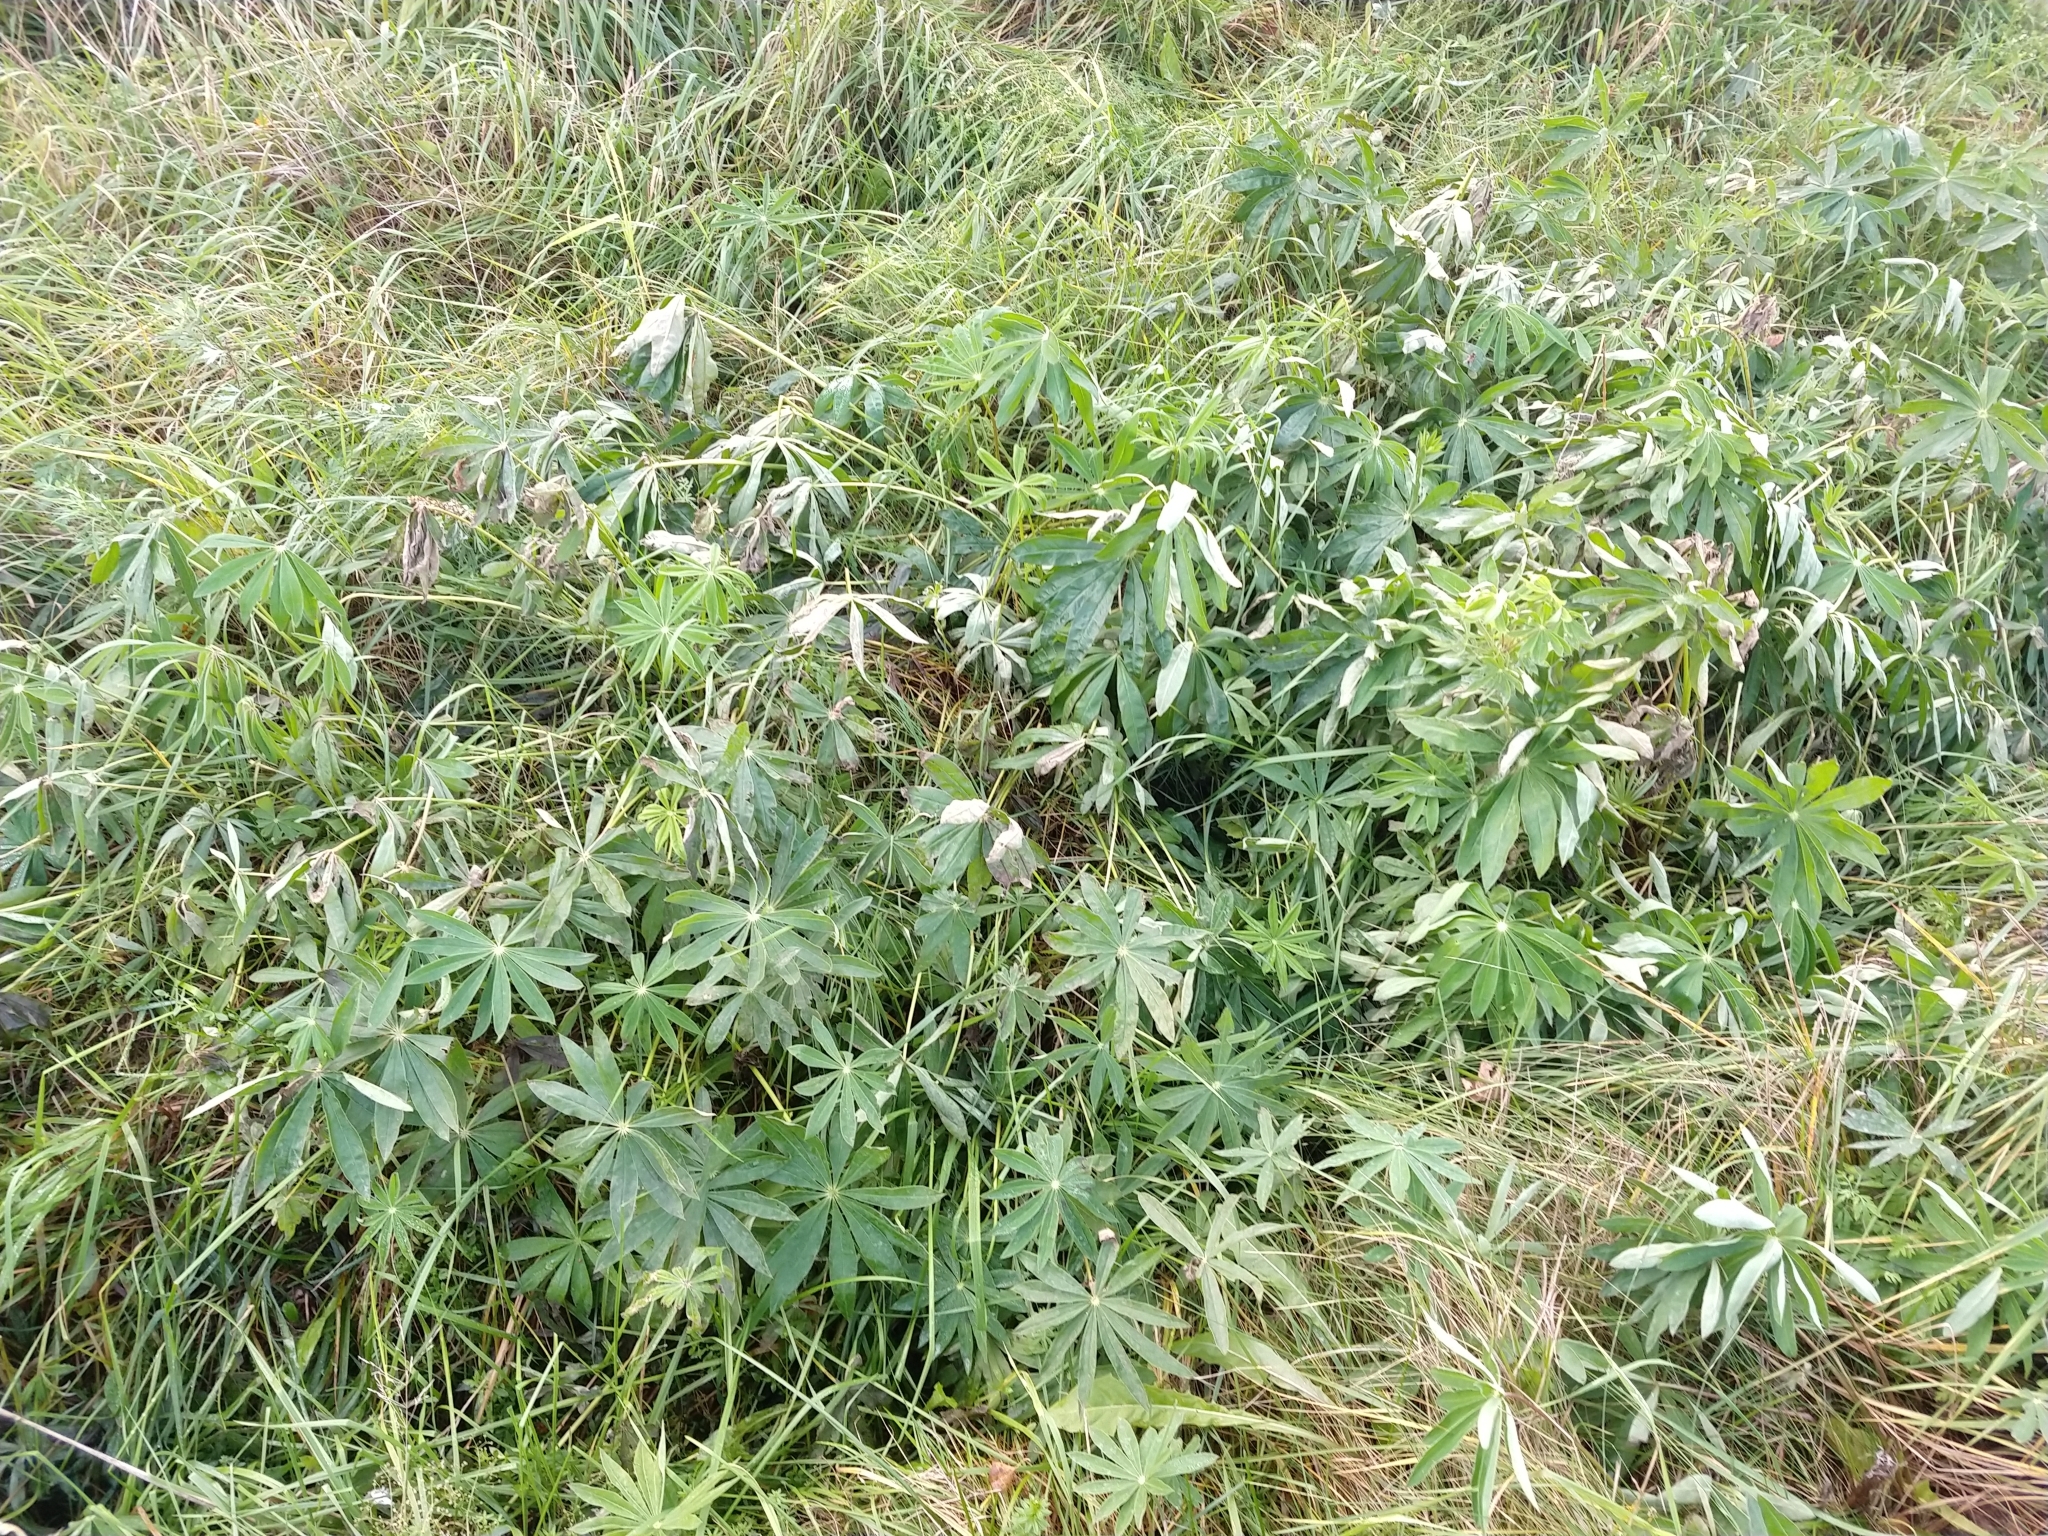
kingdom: Plantae
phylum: Tracheophyta
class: Magnoliopsida
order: Fabales
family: Fabaceae
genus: Lupinus
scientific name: Lupinus polyphyllus
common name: Garden lupin
